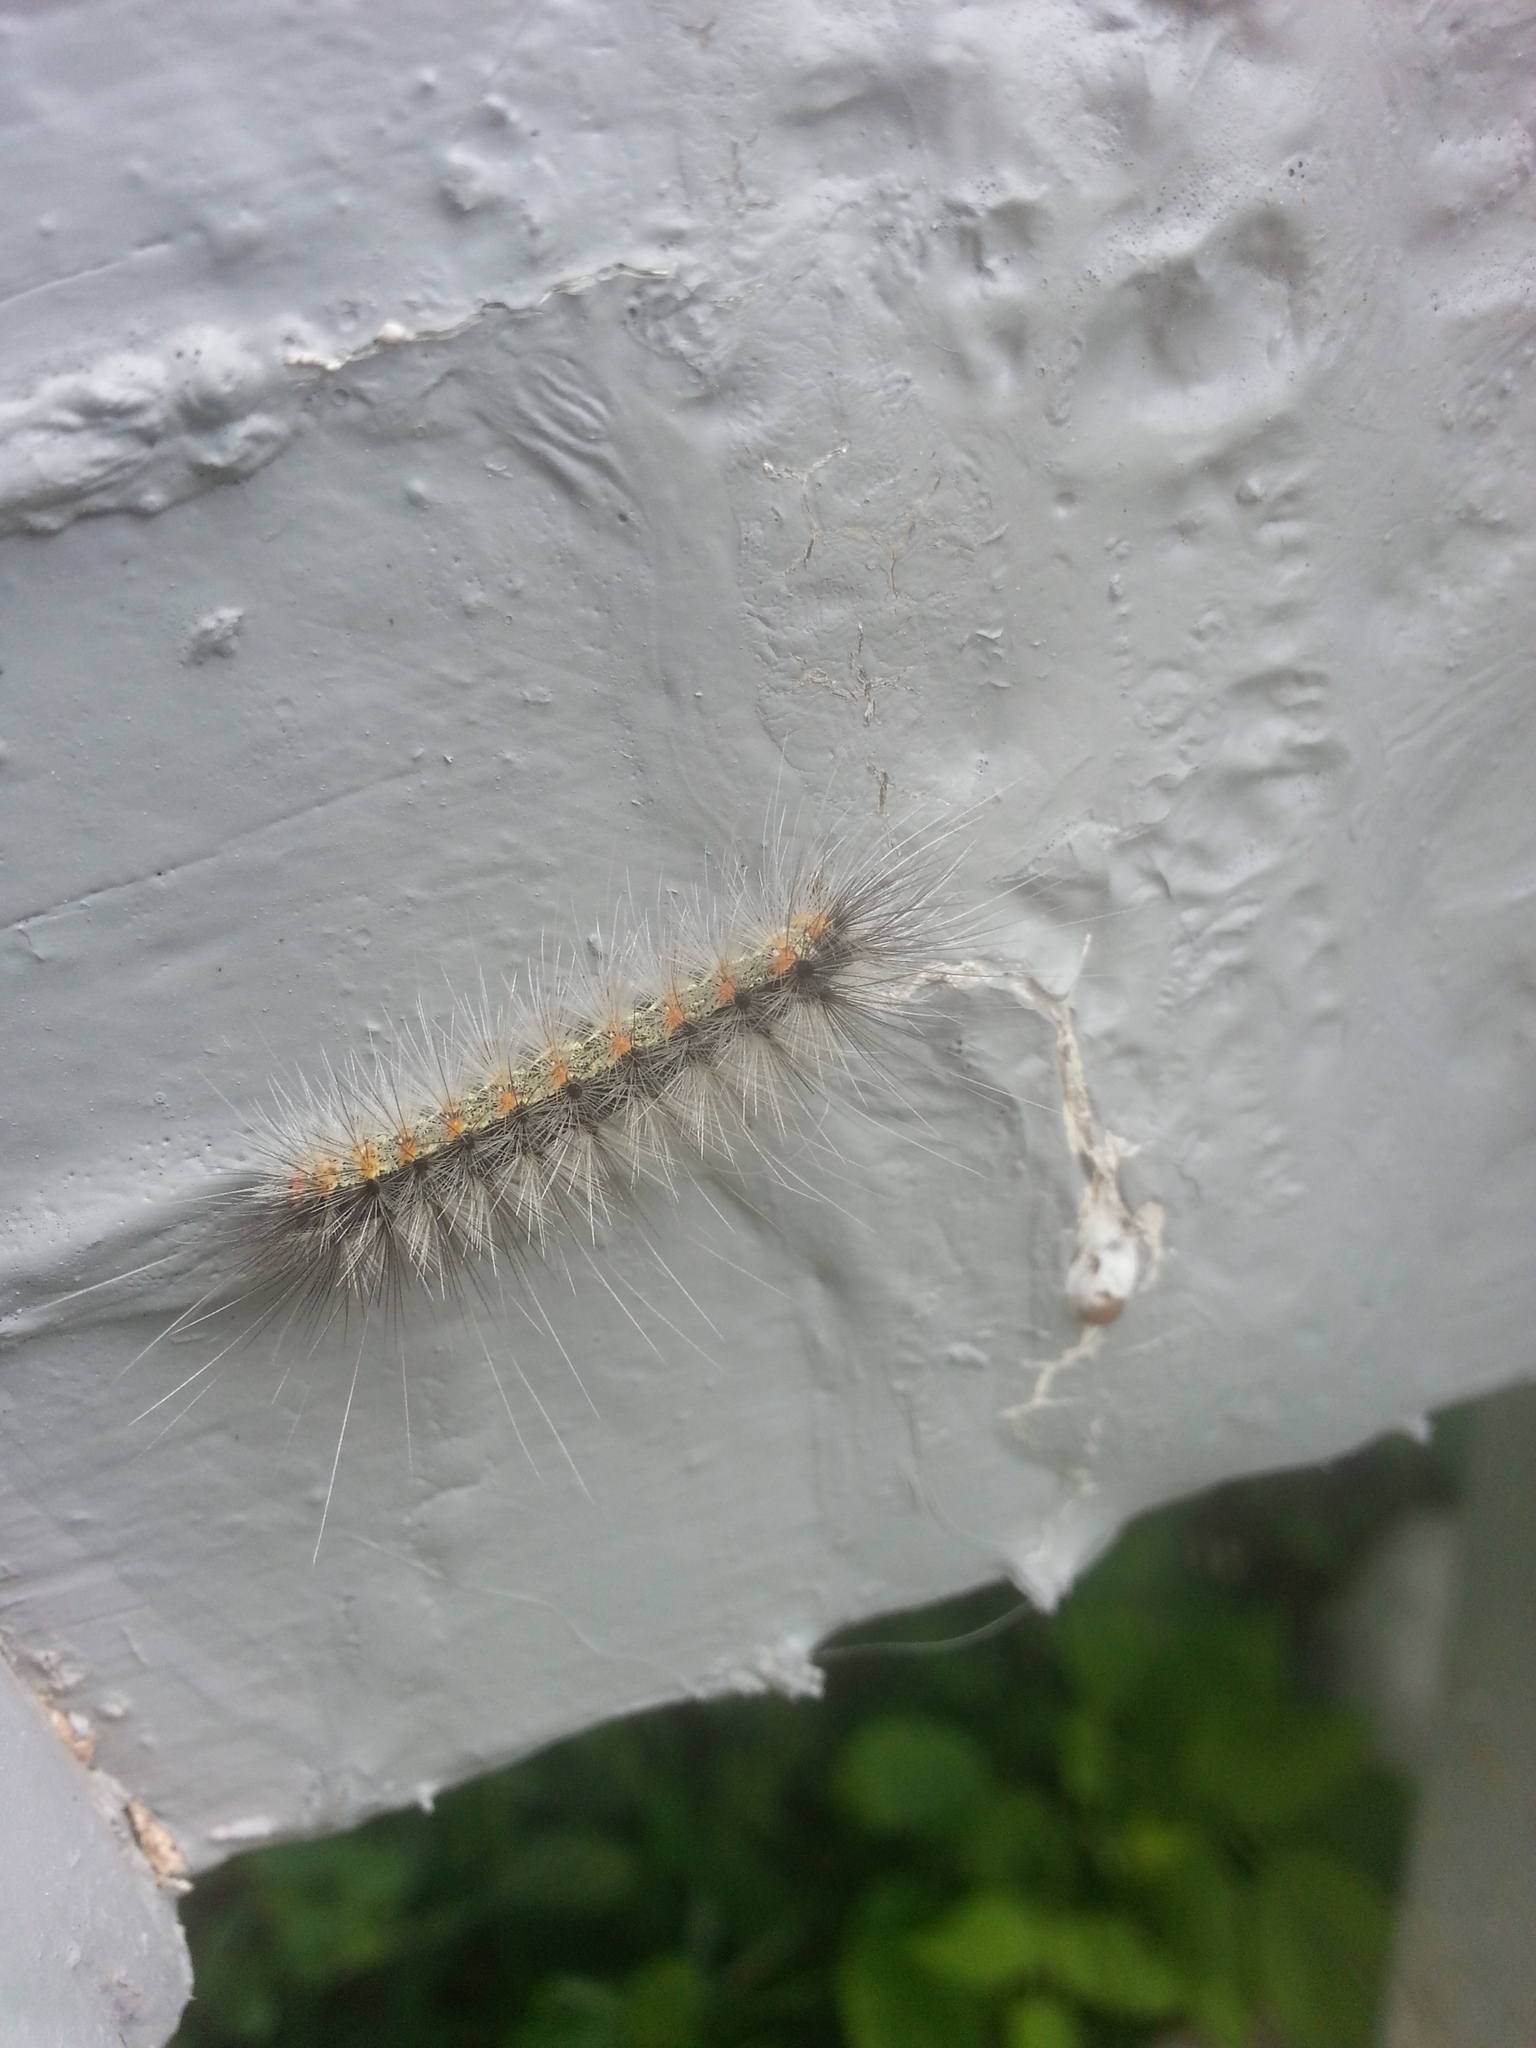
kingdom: Animalia
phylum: Arthropoda
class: Insecta
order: Lepidoptera
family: Erebidae
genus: Hyphantria
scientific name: Hyphantria cunea
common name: American white moth
